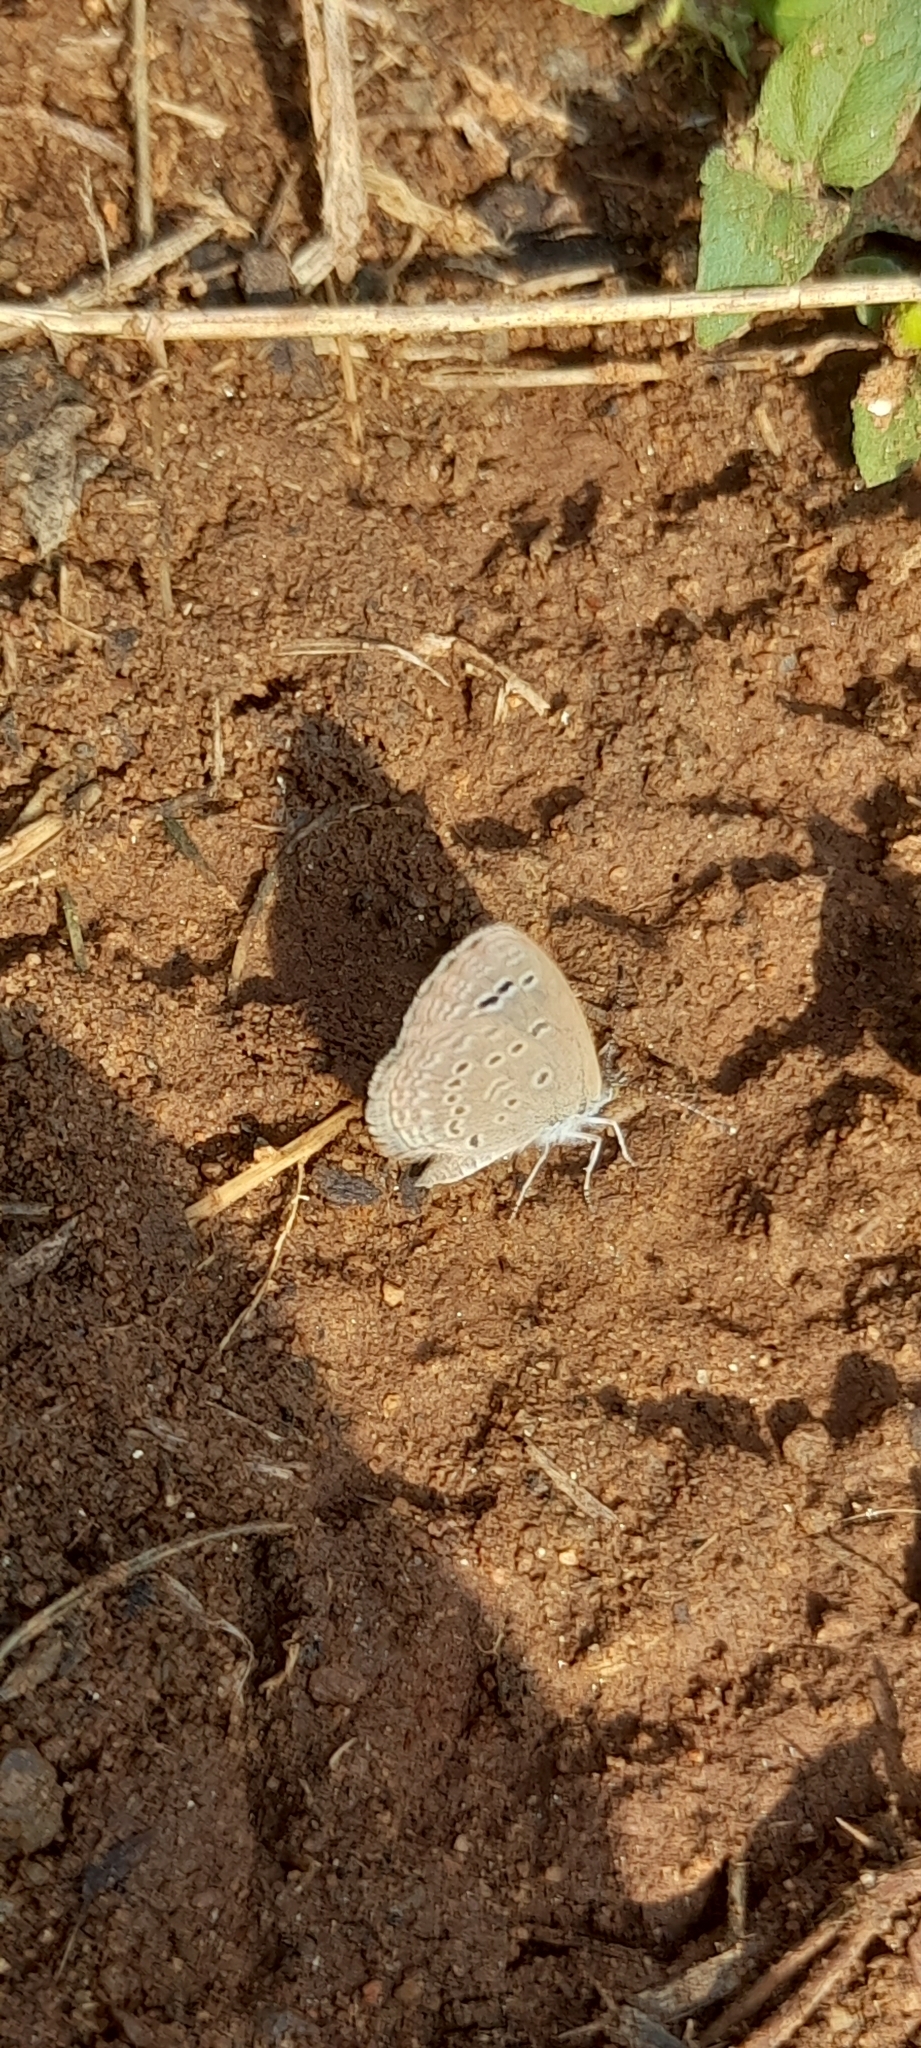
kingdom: Animalia
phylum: Arthropoda
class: Insecta
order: Lepidoptera
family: Lycaenidae
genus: Zizina
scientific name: Zizina otis
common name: Lesser grass blue
